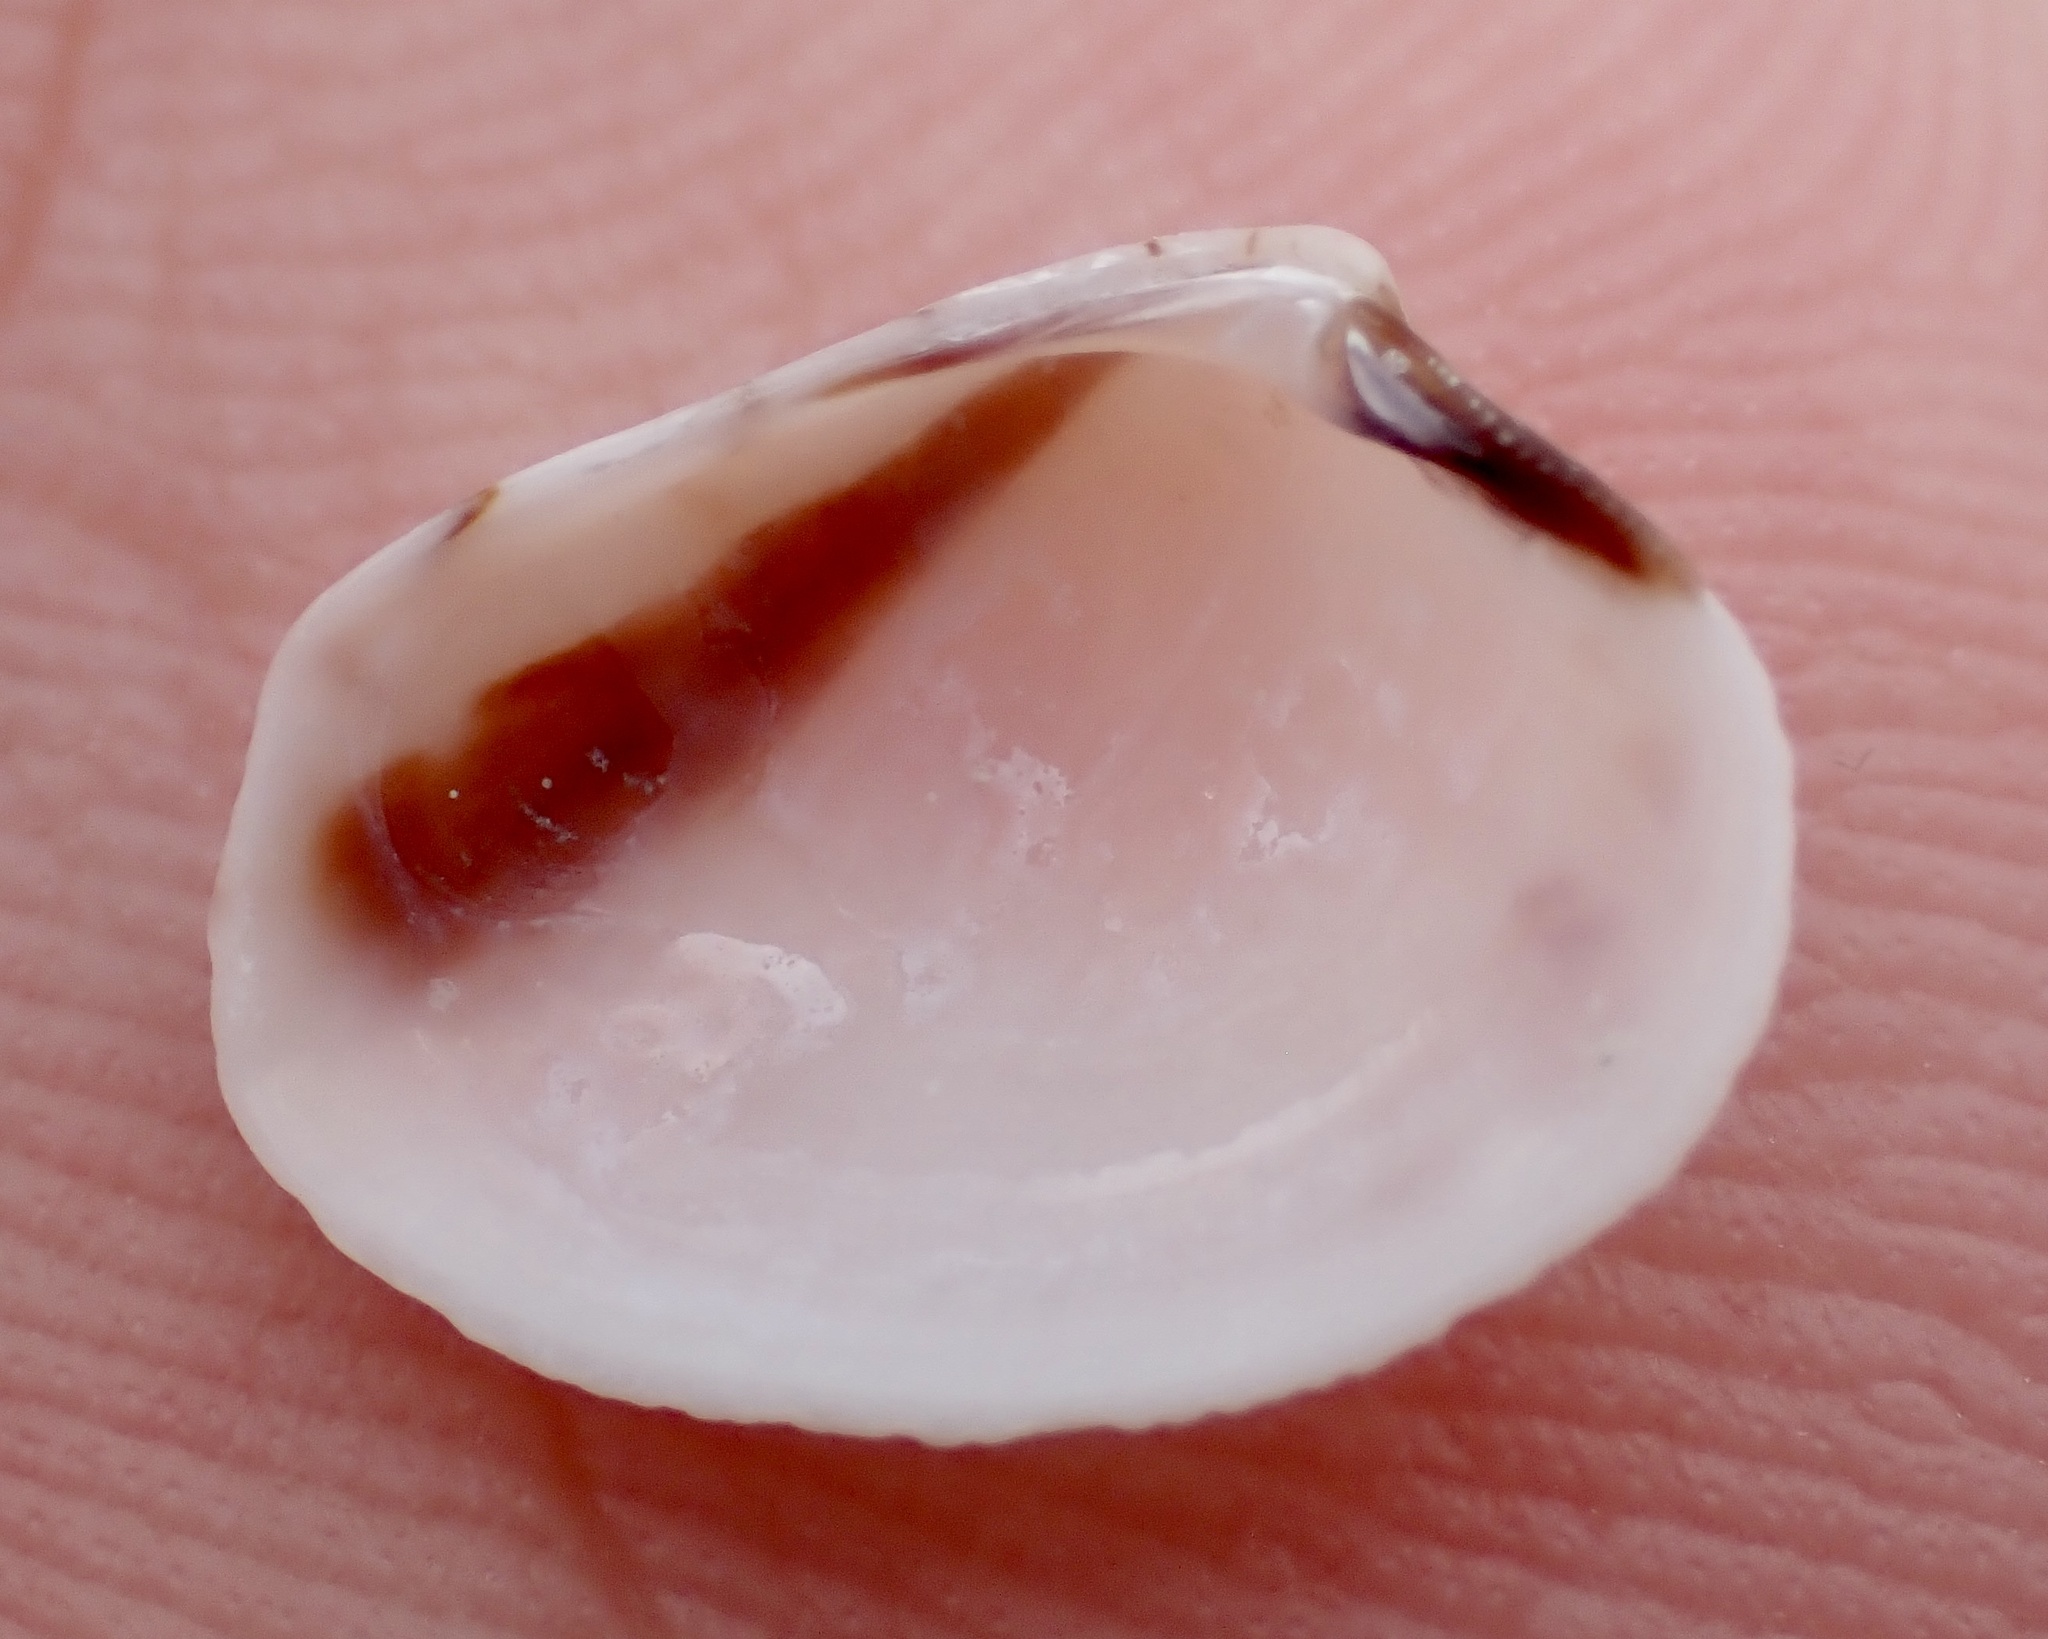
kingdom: Animalia
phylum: Mollusca
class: Bivalvia
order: Venerida
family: Veneridae
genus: Chioneryx
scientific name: Chioneryx grus
